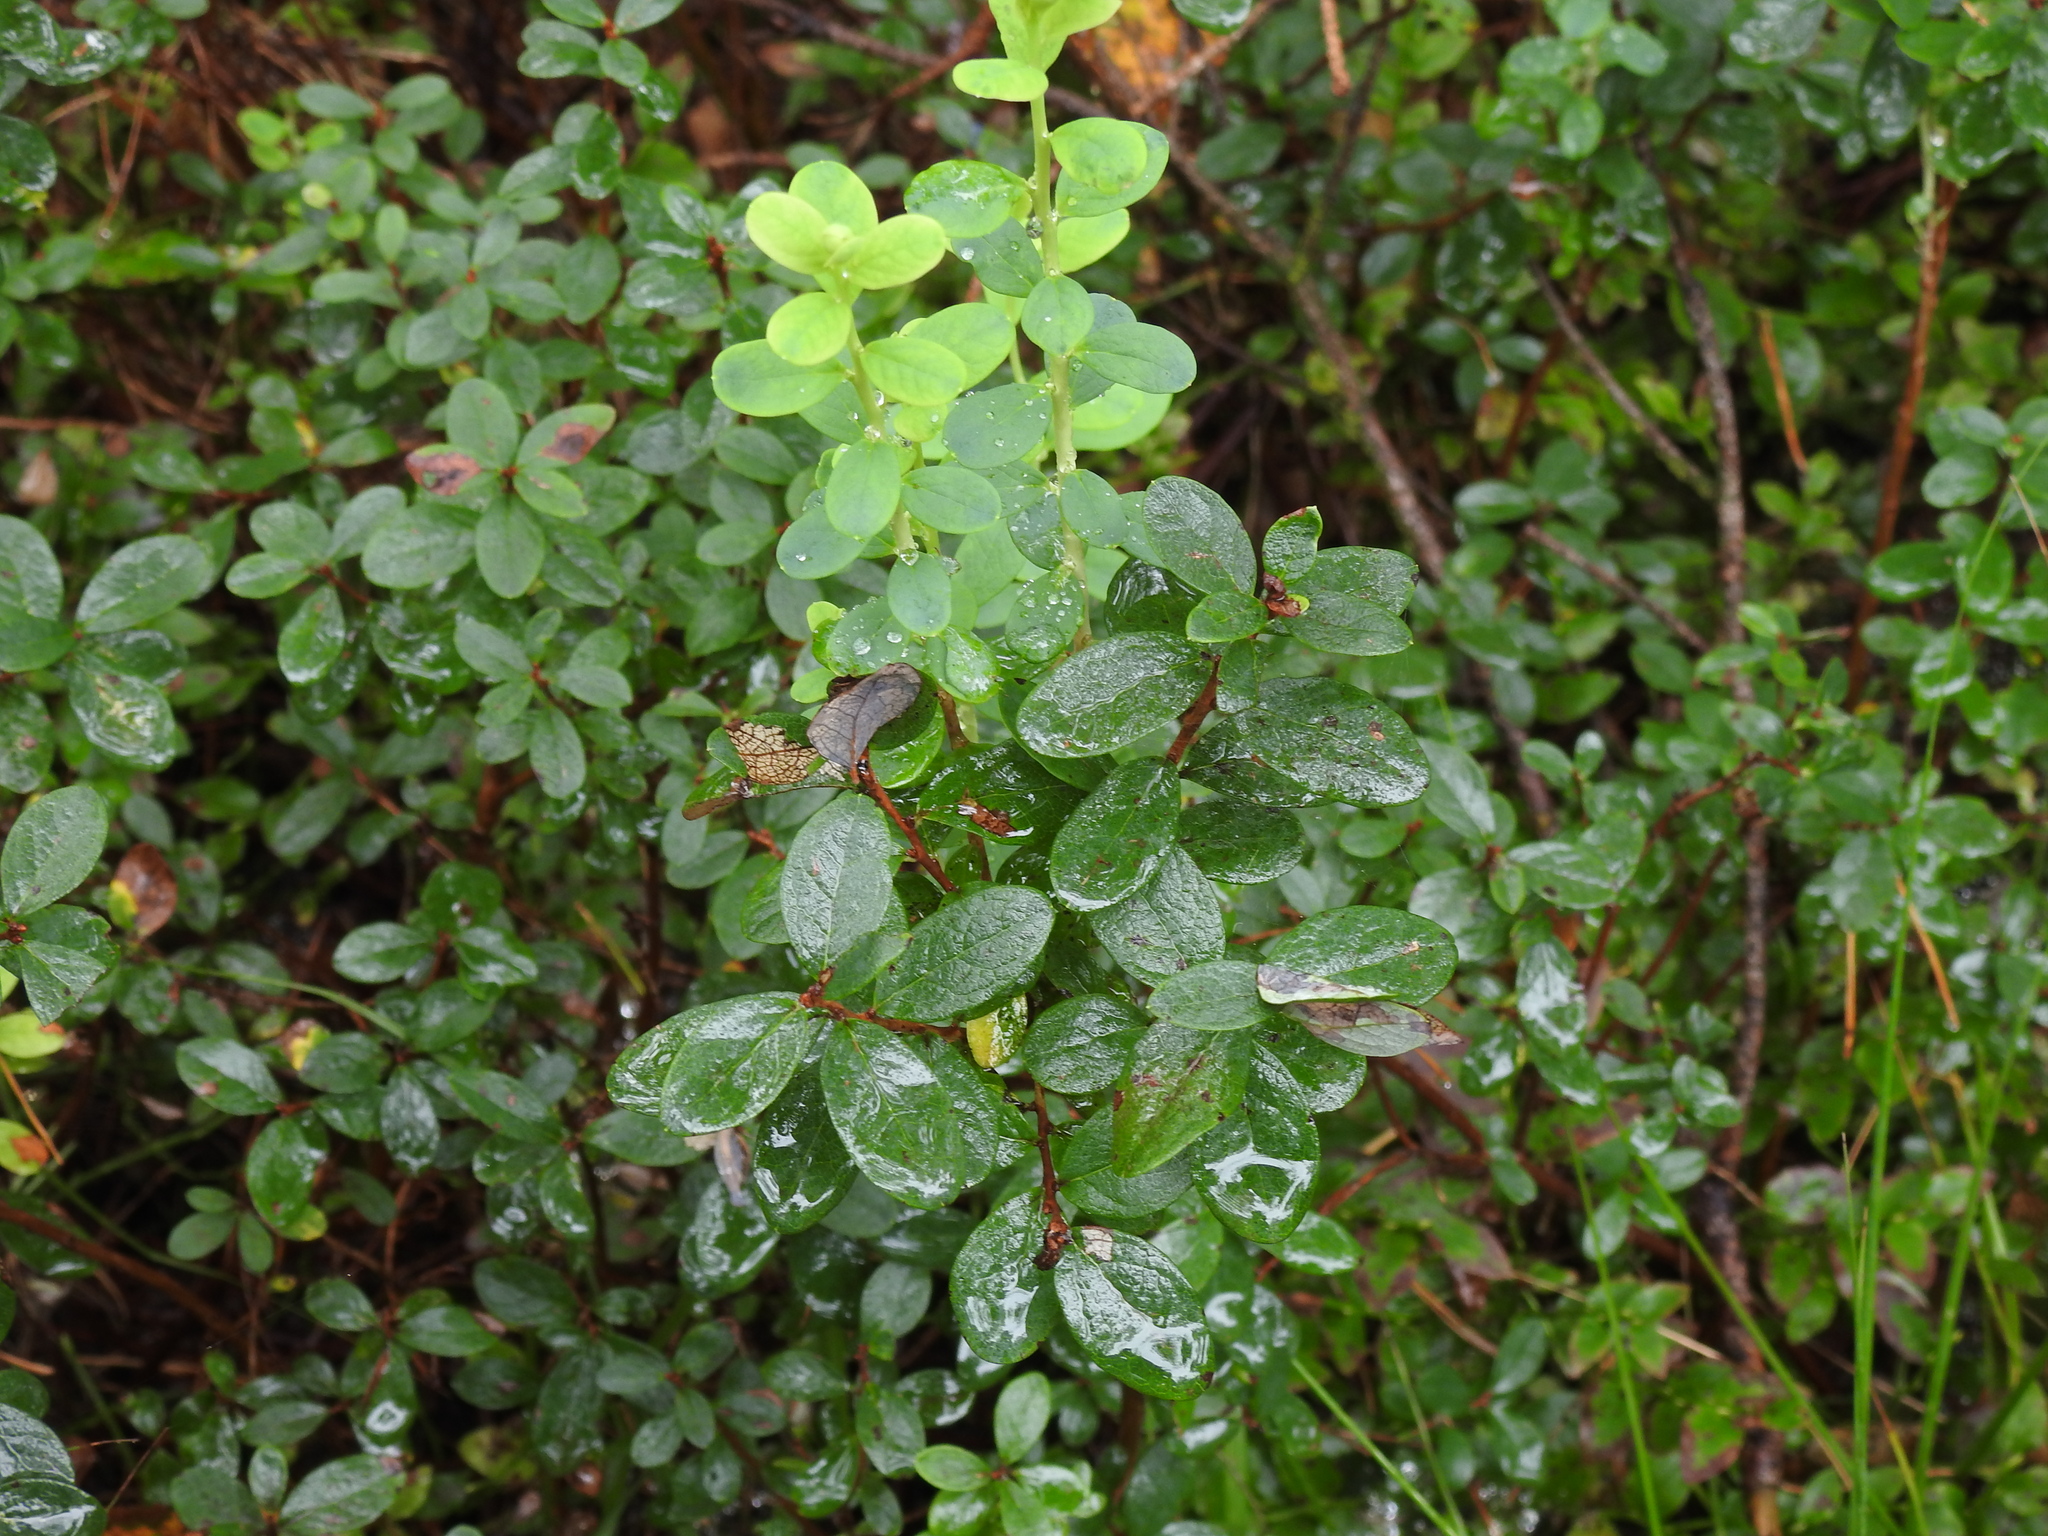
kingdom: Plantae
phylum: Tracheophyta
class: Magnoliopsida
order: Ericales
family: Ericaceae
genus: Vaccinium
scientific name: Vaccinium uliginosum
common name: Bog bilberry
